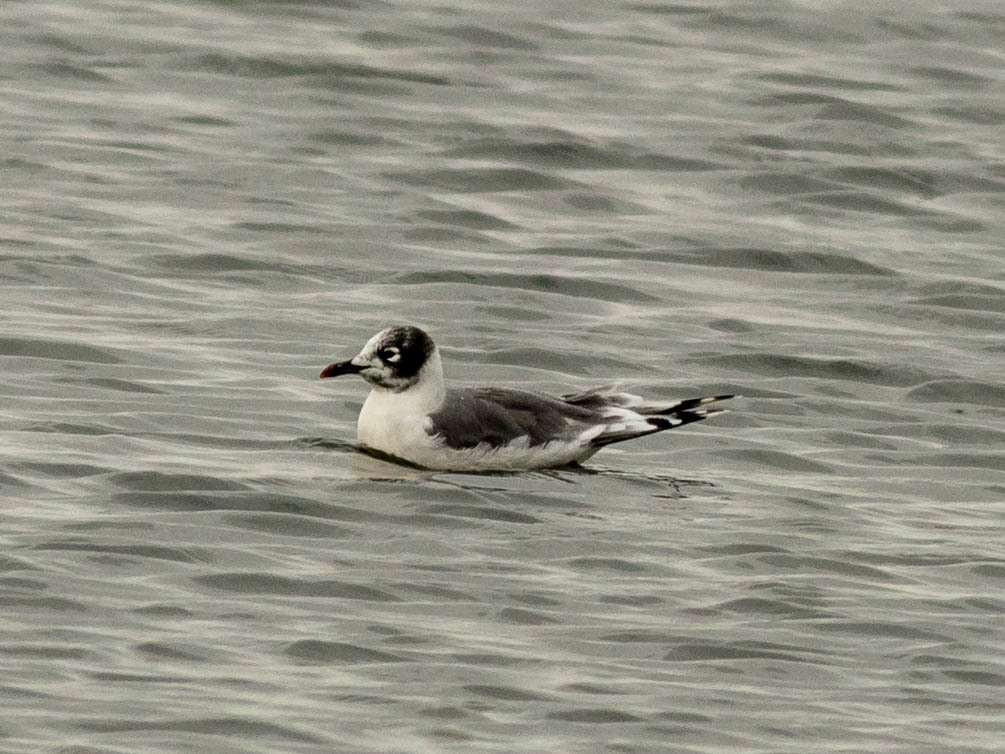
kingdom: Animalia
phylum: Chordata
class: Aves
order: Charadriiformes
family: Laridae
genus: Leucophaeus
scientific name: Leucophaeus pipixcan
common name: Franklin's gull
